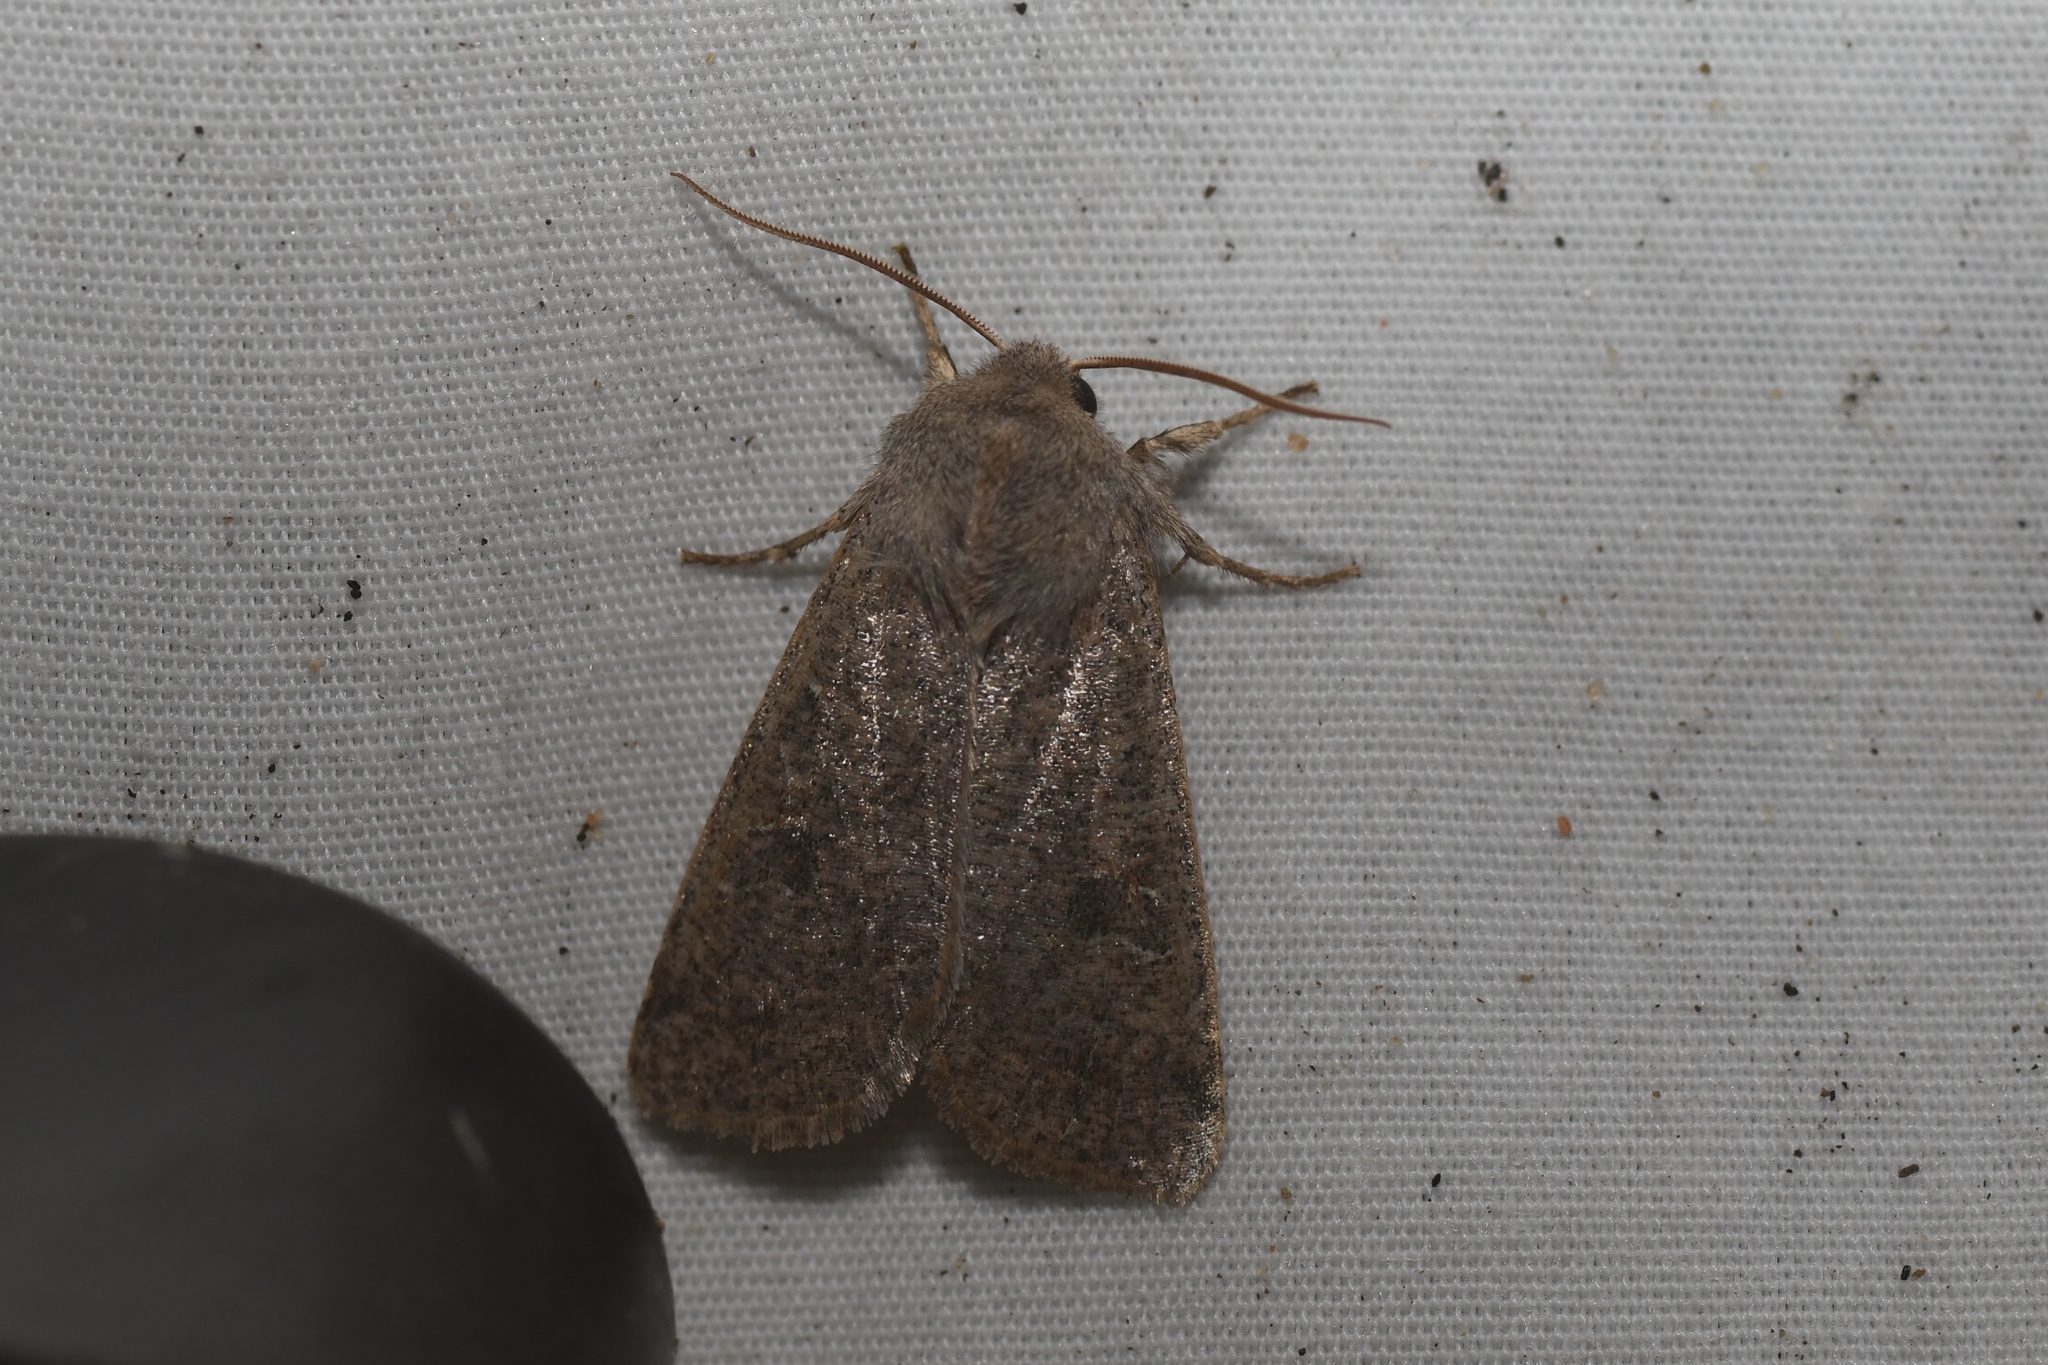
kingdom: Animalia
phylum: Arthropoda
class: Insecta
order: Lepidoptera
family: Noctuidae
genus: Orthosia
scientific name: Orthosia hibisci
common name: Green fruitworm
